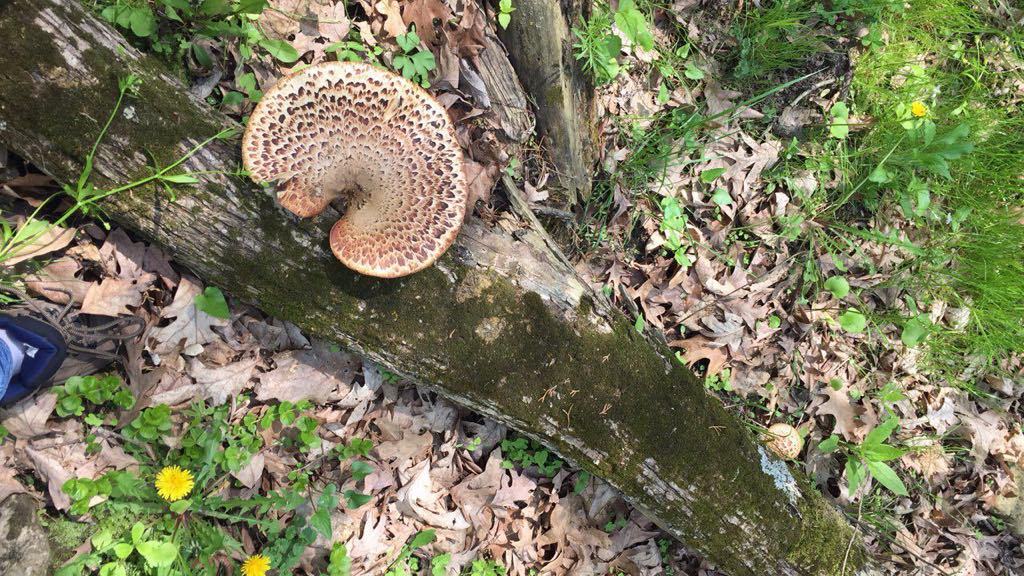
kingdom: Fungi
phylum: Basidiomycota
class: Agaricomycetes
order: Polyporales
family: Polyporaceae
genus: Cerioporus
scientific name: Cerioporus squamosus
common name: Dryad's saddle
